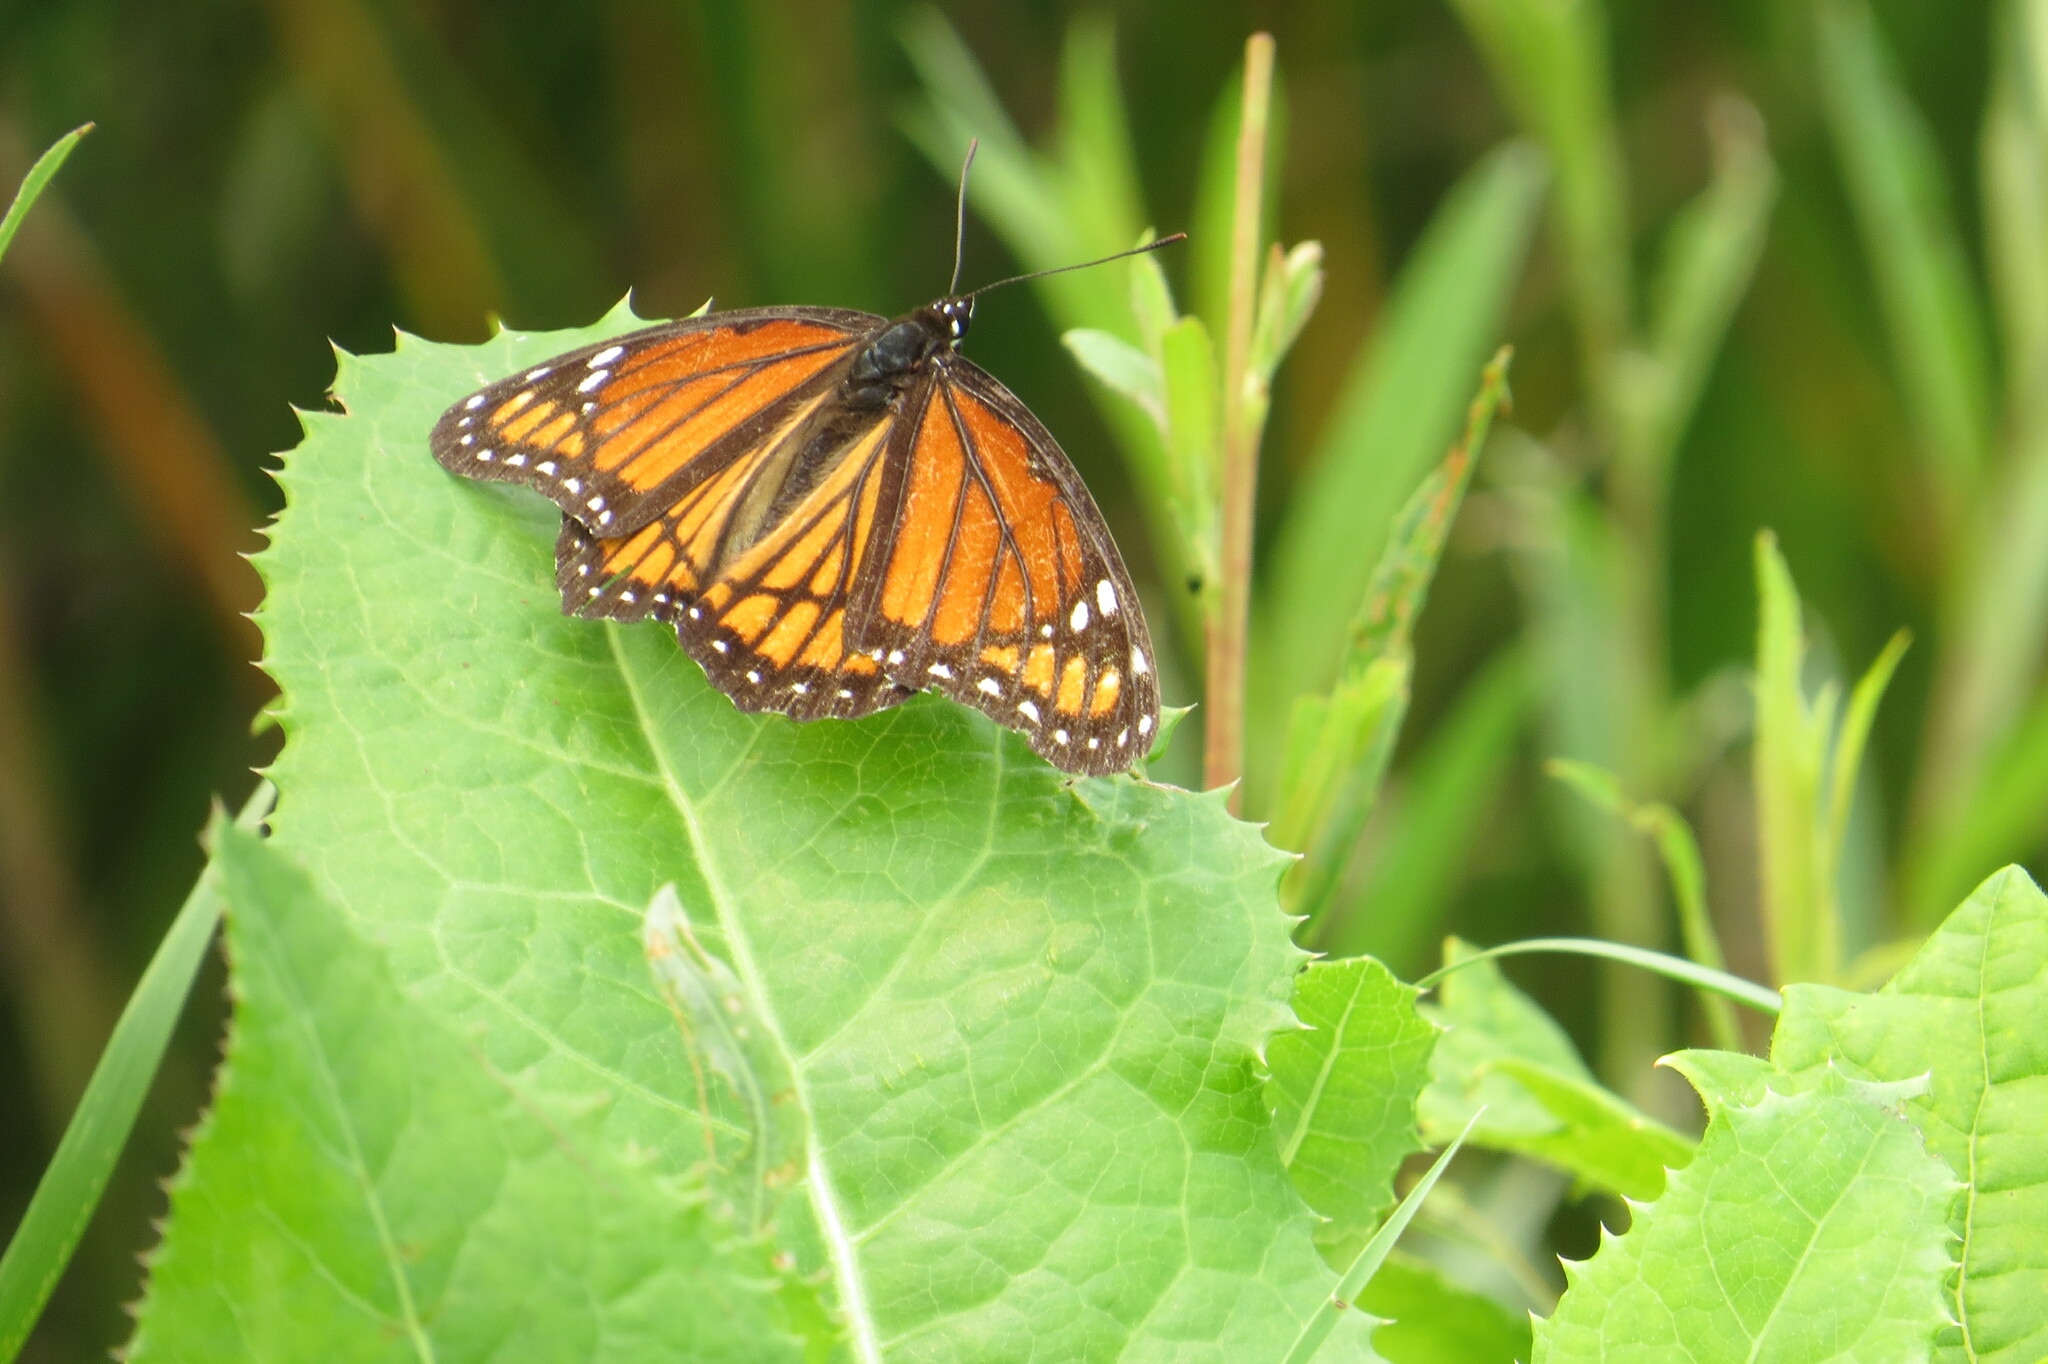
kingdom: Animalia
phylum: Arthropoda
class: Insecta
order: Lepidoptera
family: Nymphalidae
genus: Limenitis
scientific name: Limenitis archippus
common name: Viceroy
